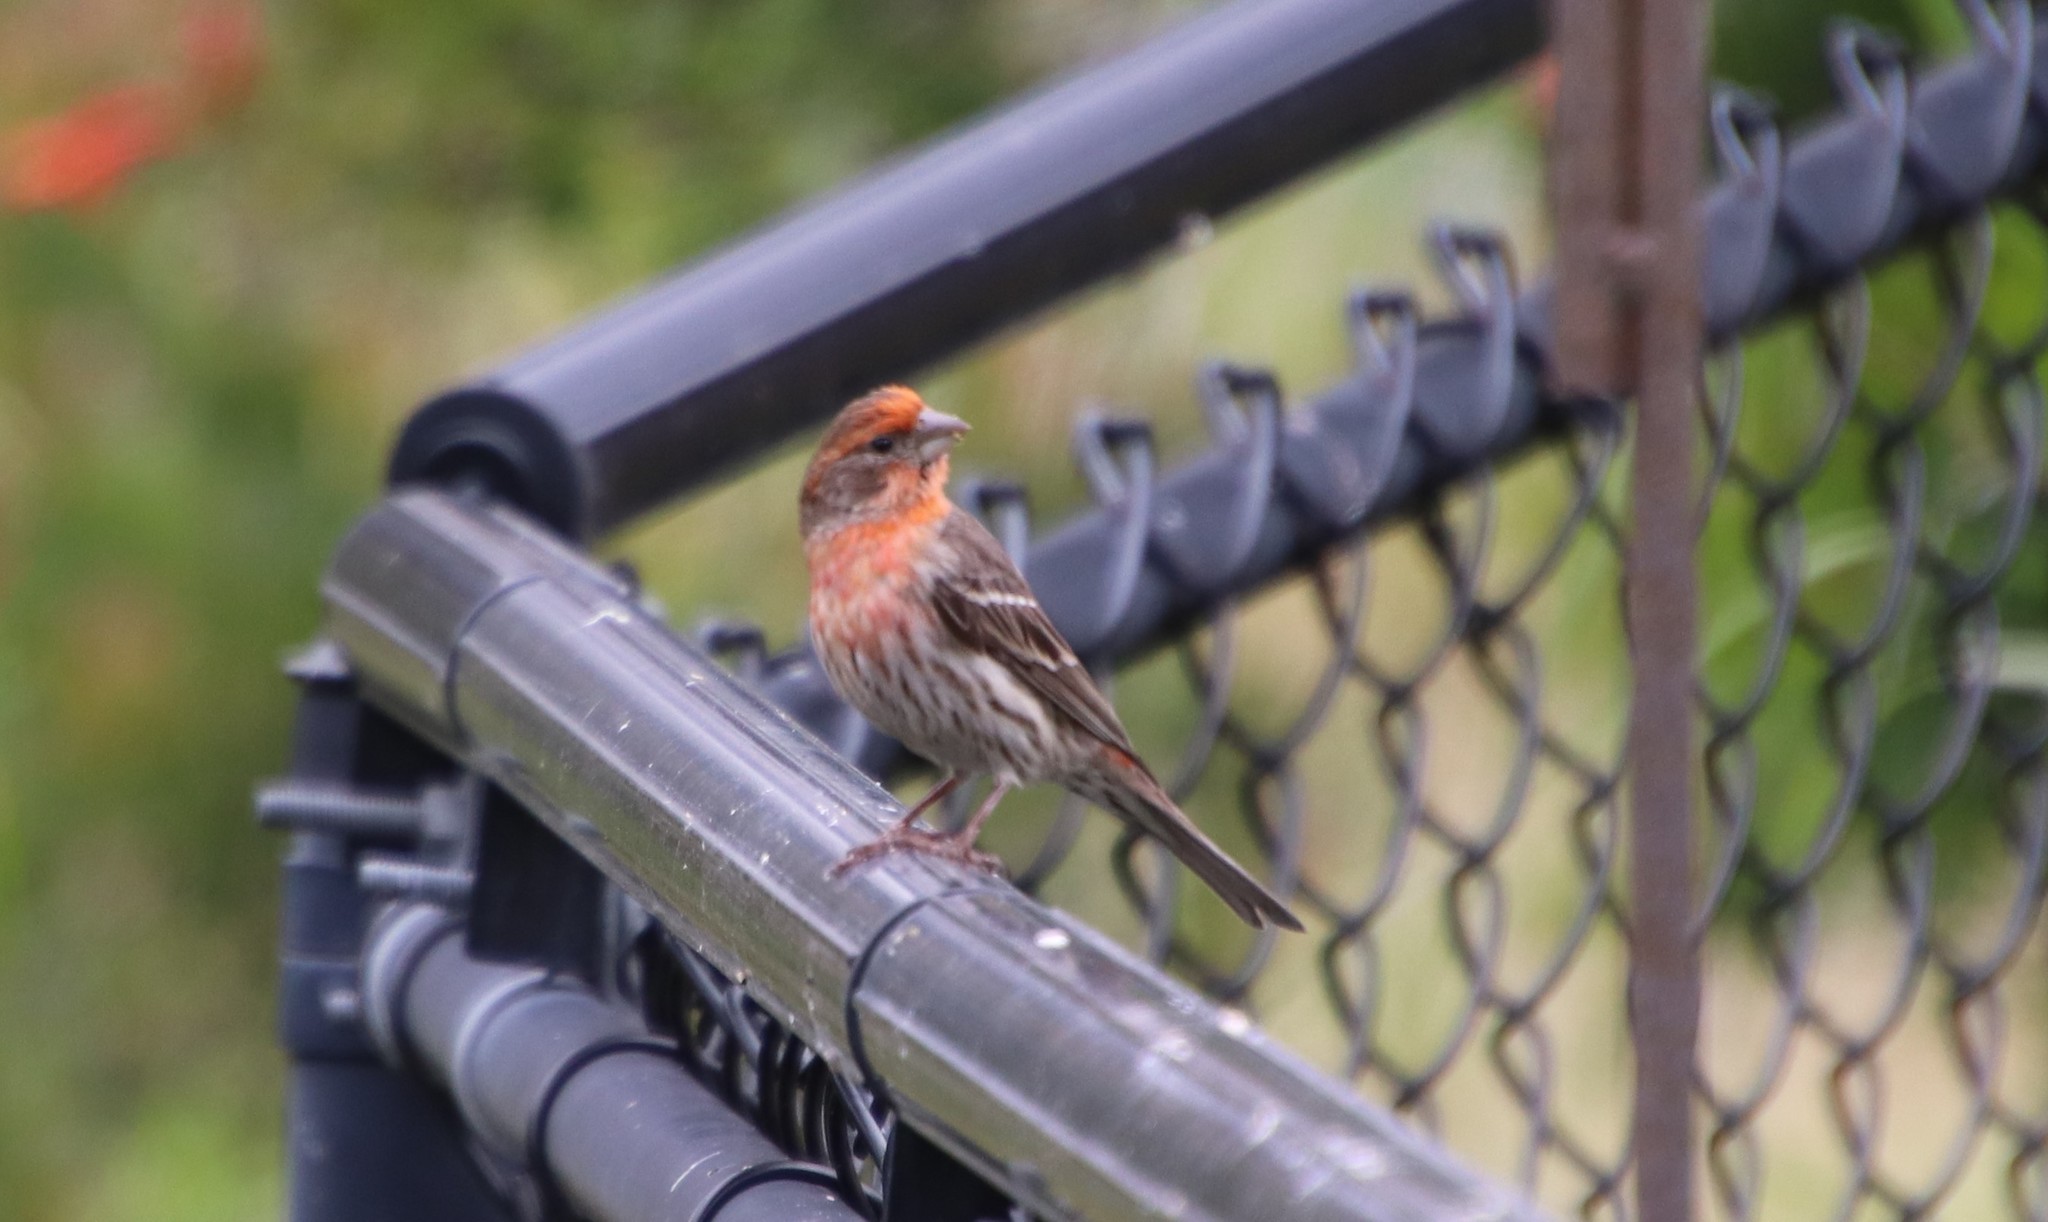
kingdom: Animalia
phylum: Chordata
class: Aves
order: Passeriformes
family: Fringillidae
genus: Haemorhous
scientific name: Haemorhous mexicanus
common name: House finch
